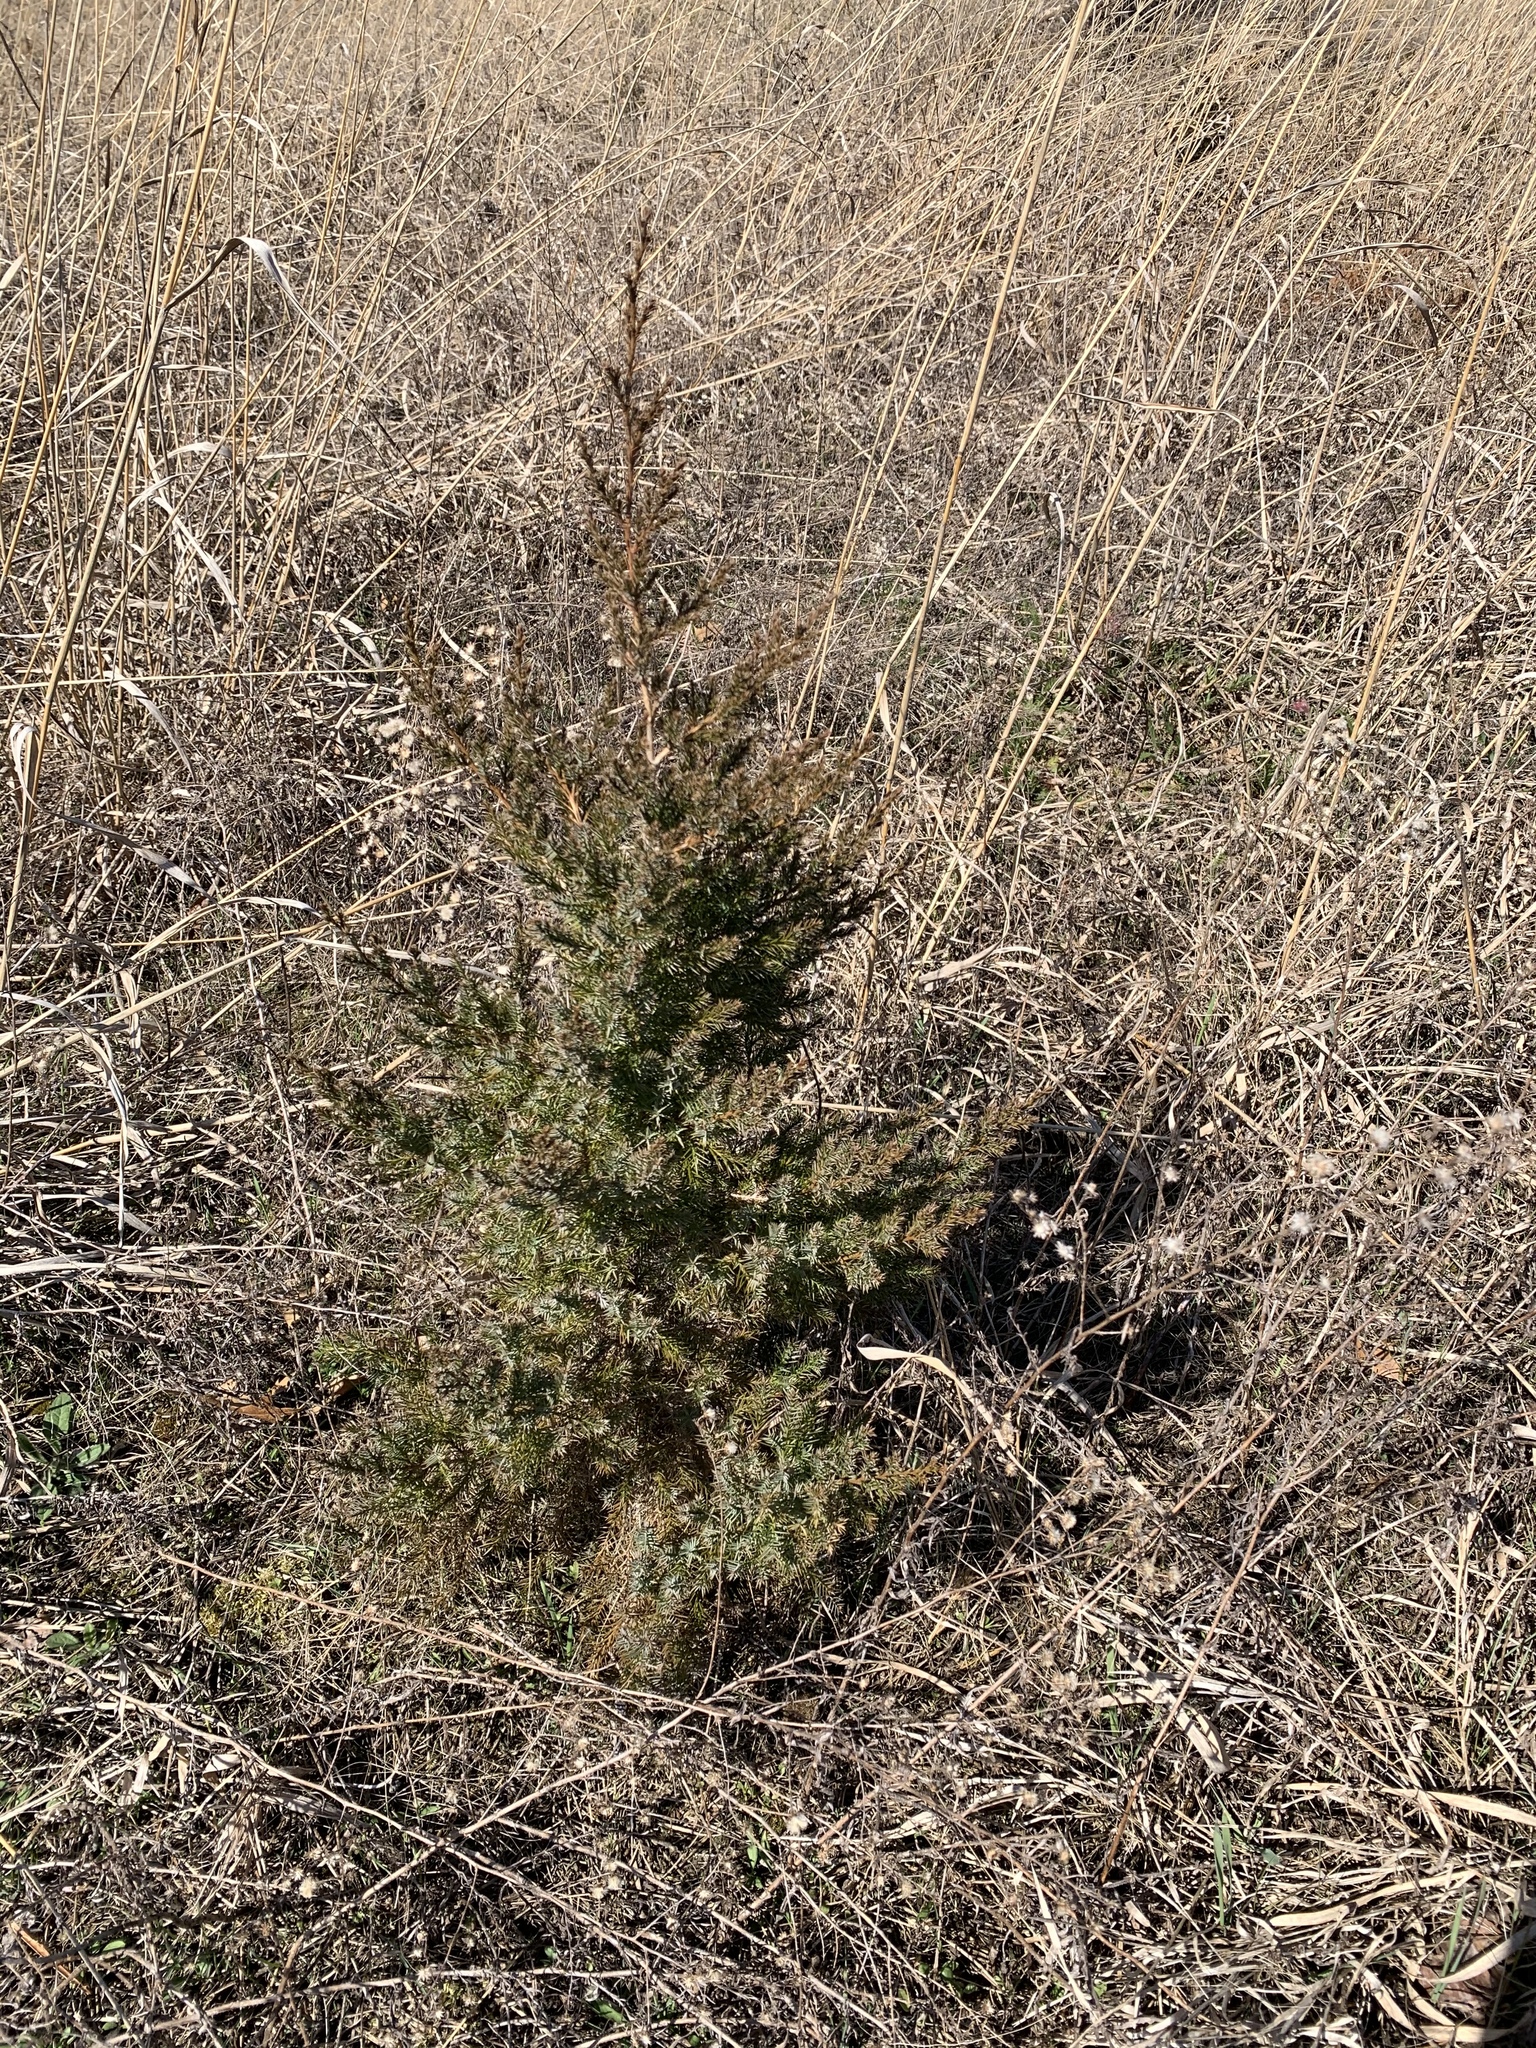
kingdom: Plantae
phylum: Tracheophyta
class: Pinopsida
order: Pinales
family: Cupressaceae
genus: Juniperus
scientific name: Juniperus virginiana
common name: Red juniper
